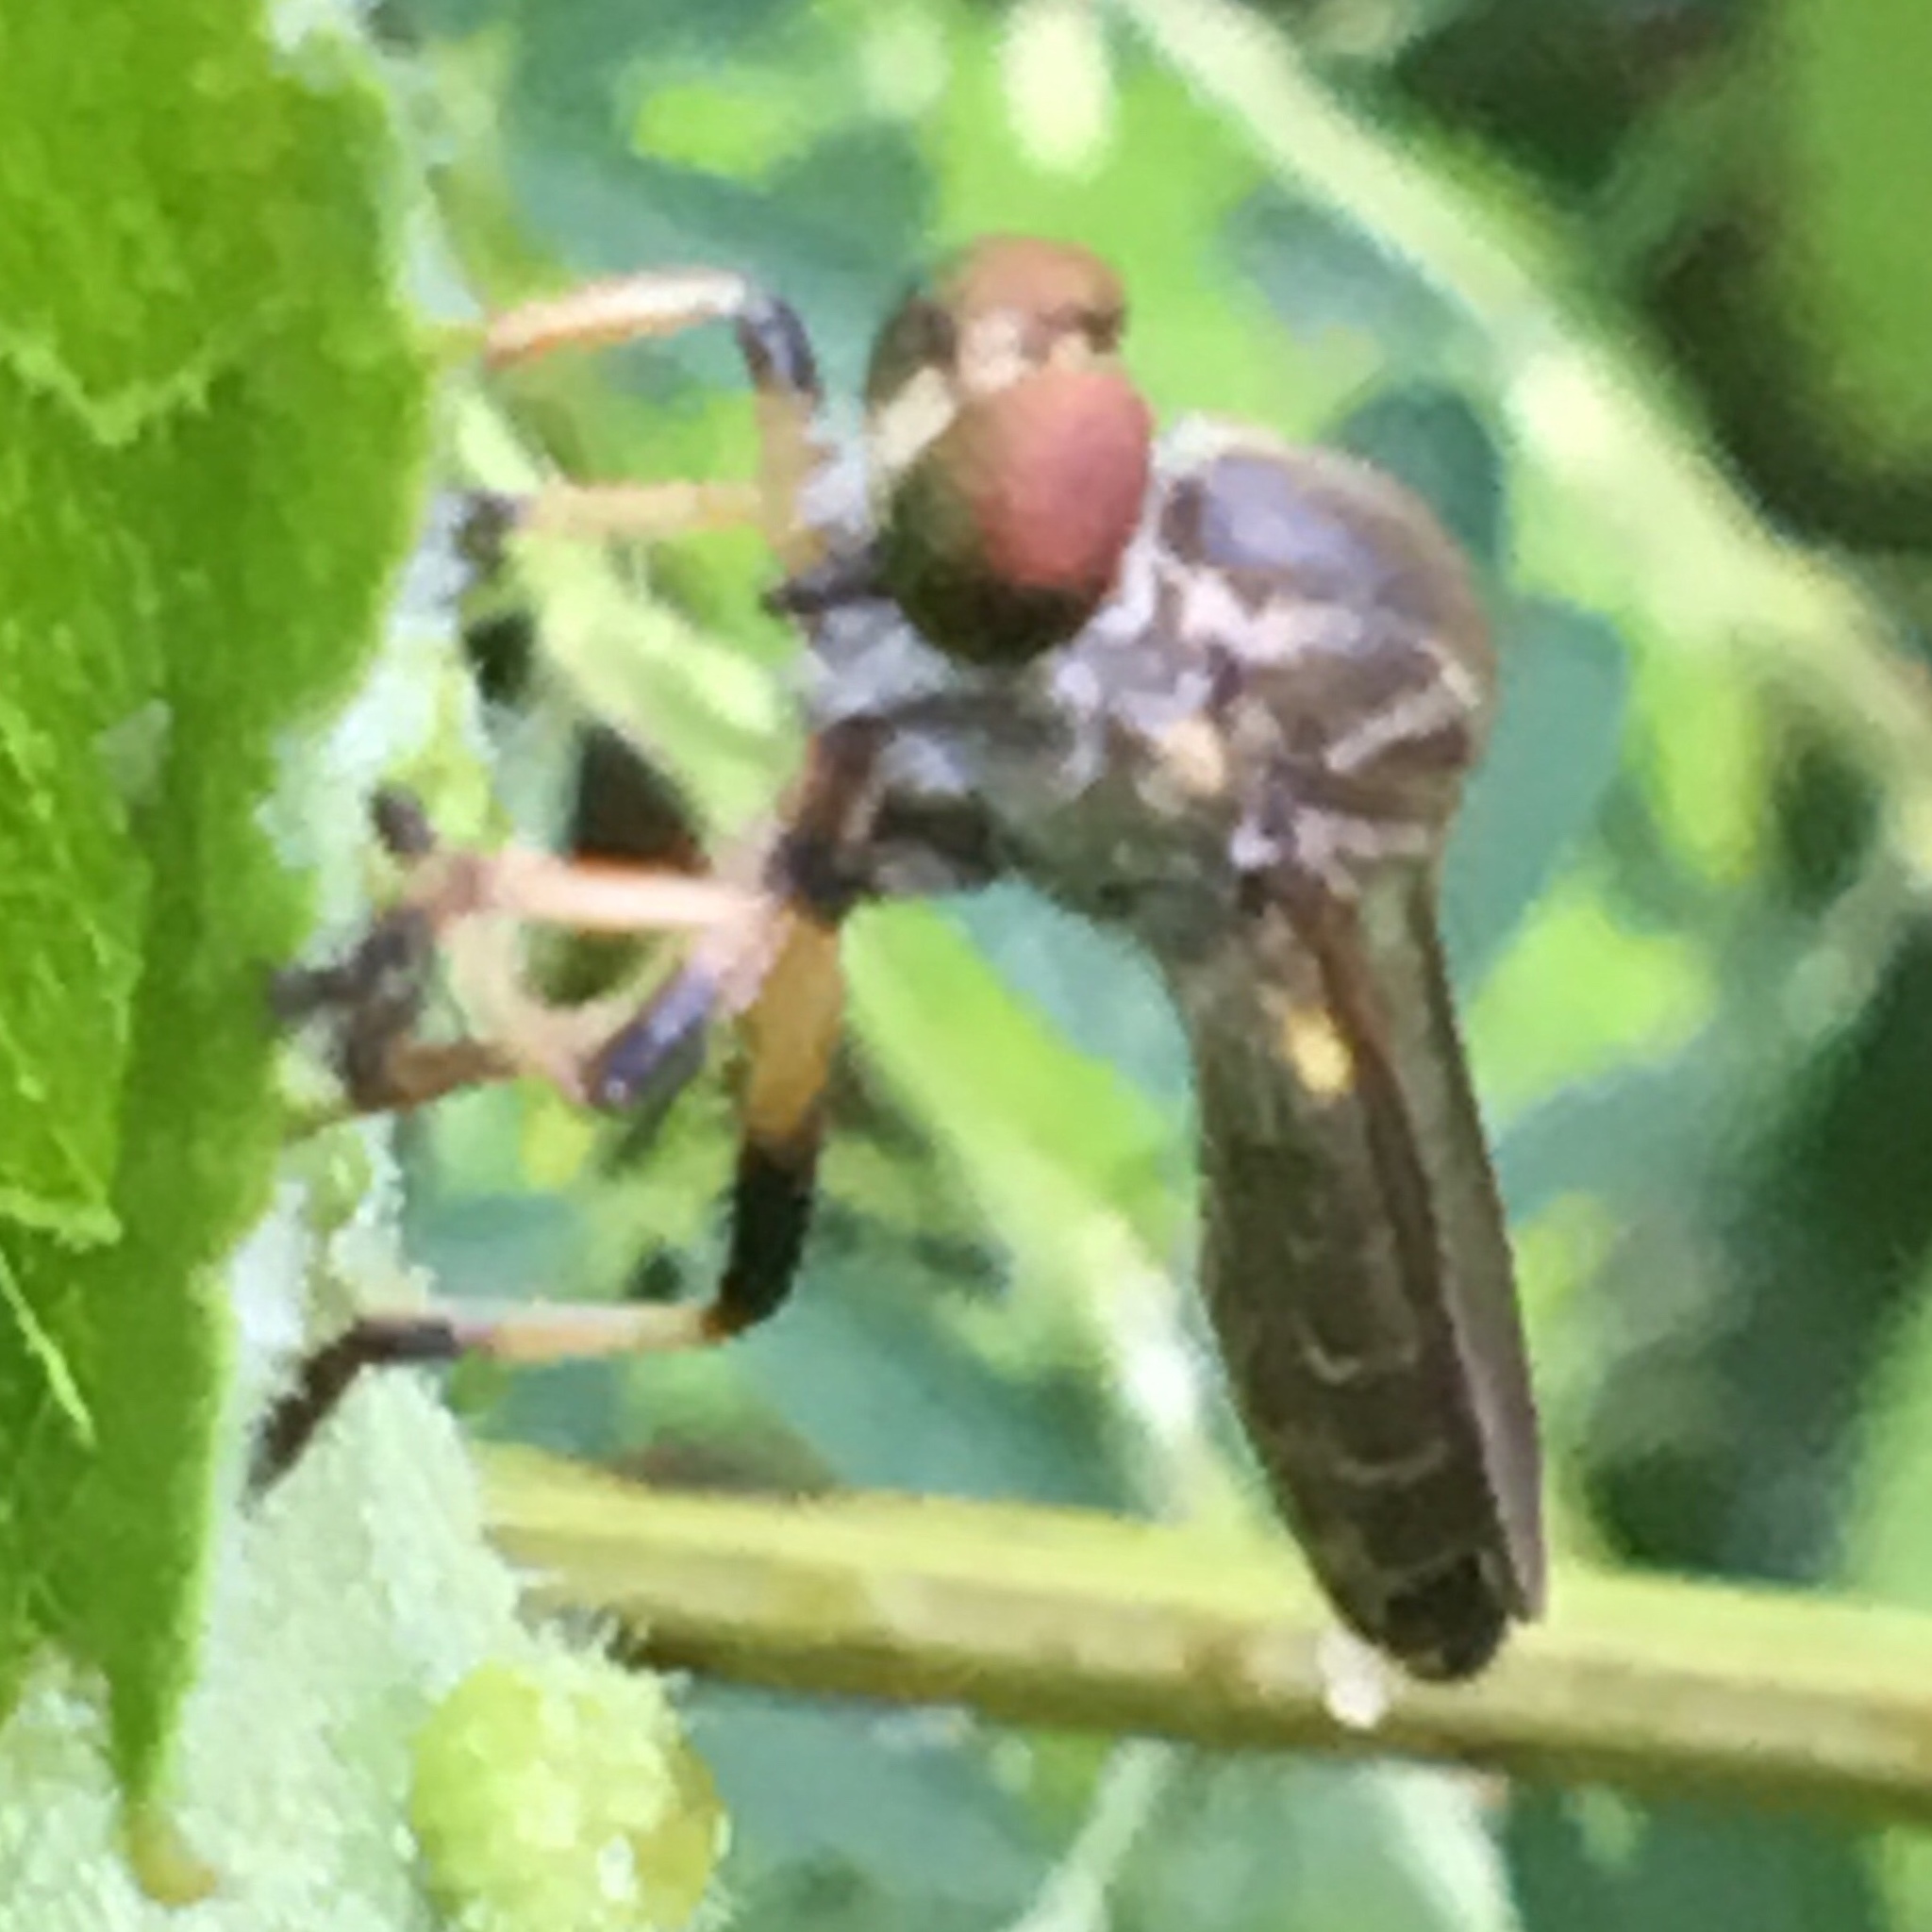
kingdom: Animalia
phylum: Arthropoda
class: Insecta
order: Diptera
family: Asilidae
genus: Ommatius
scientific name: Ommatius ouachitensis
